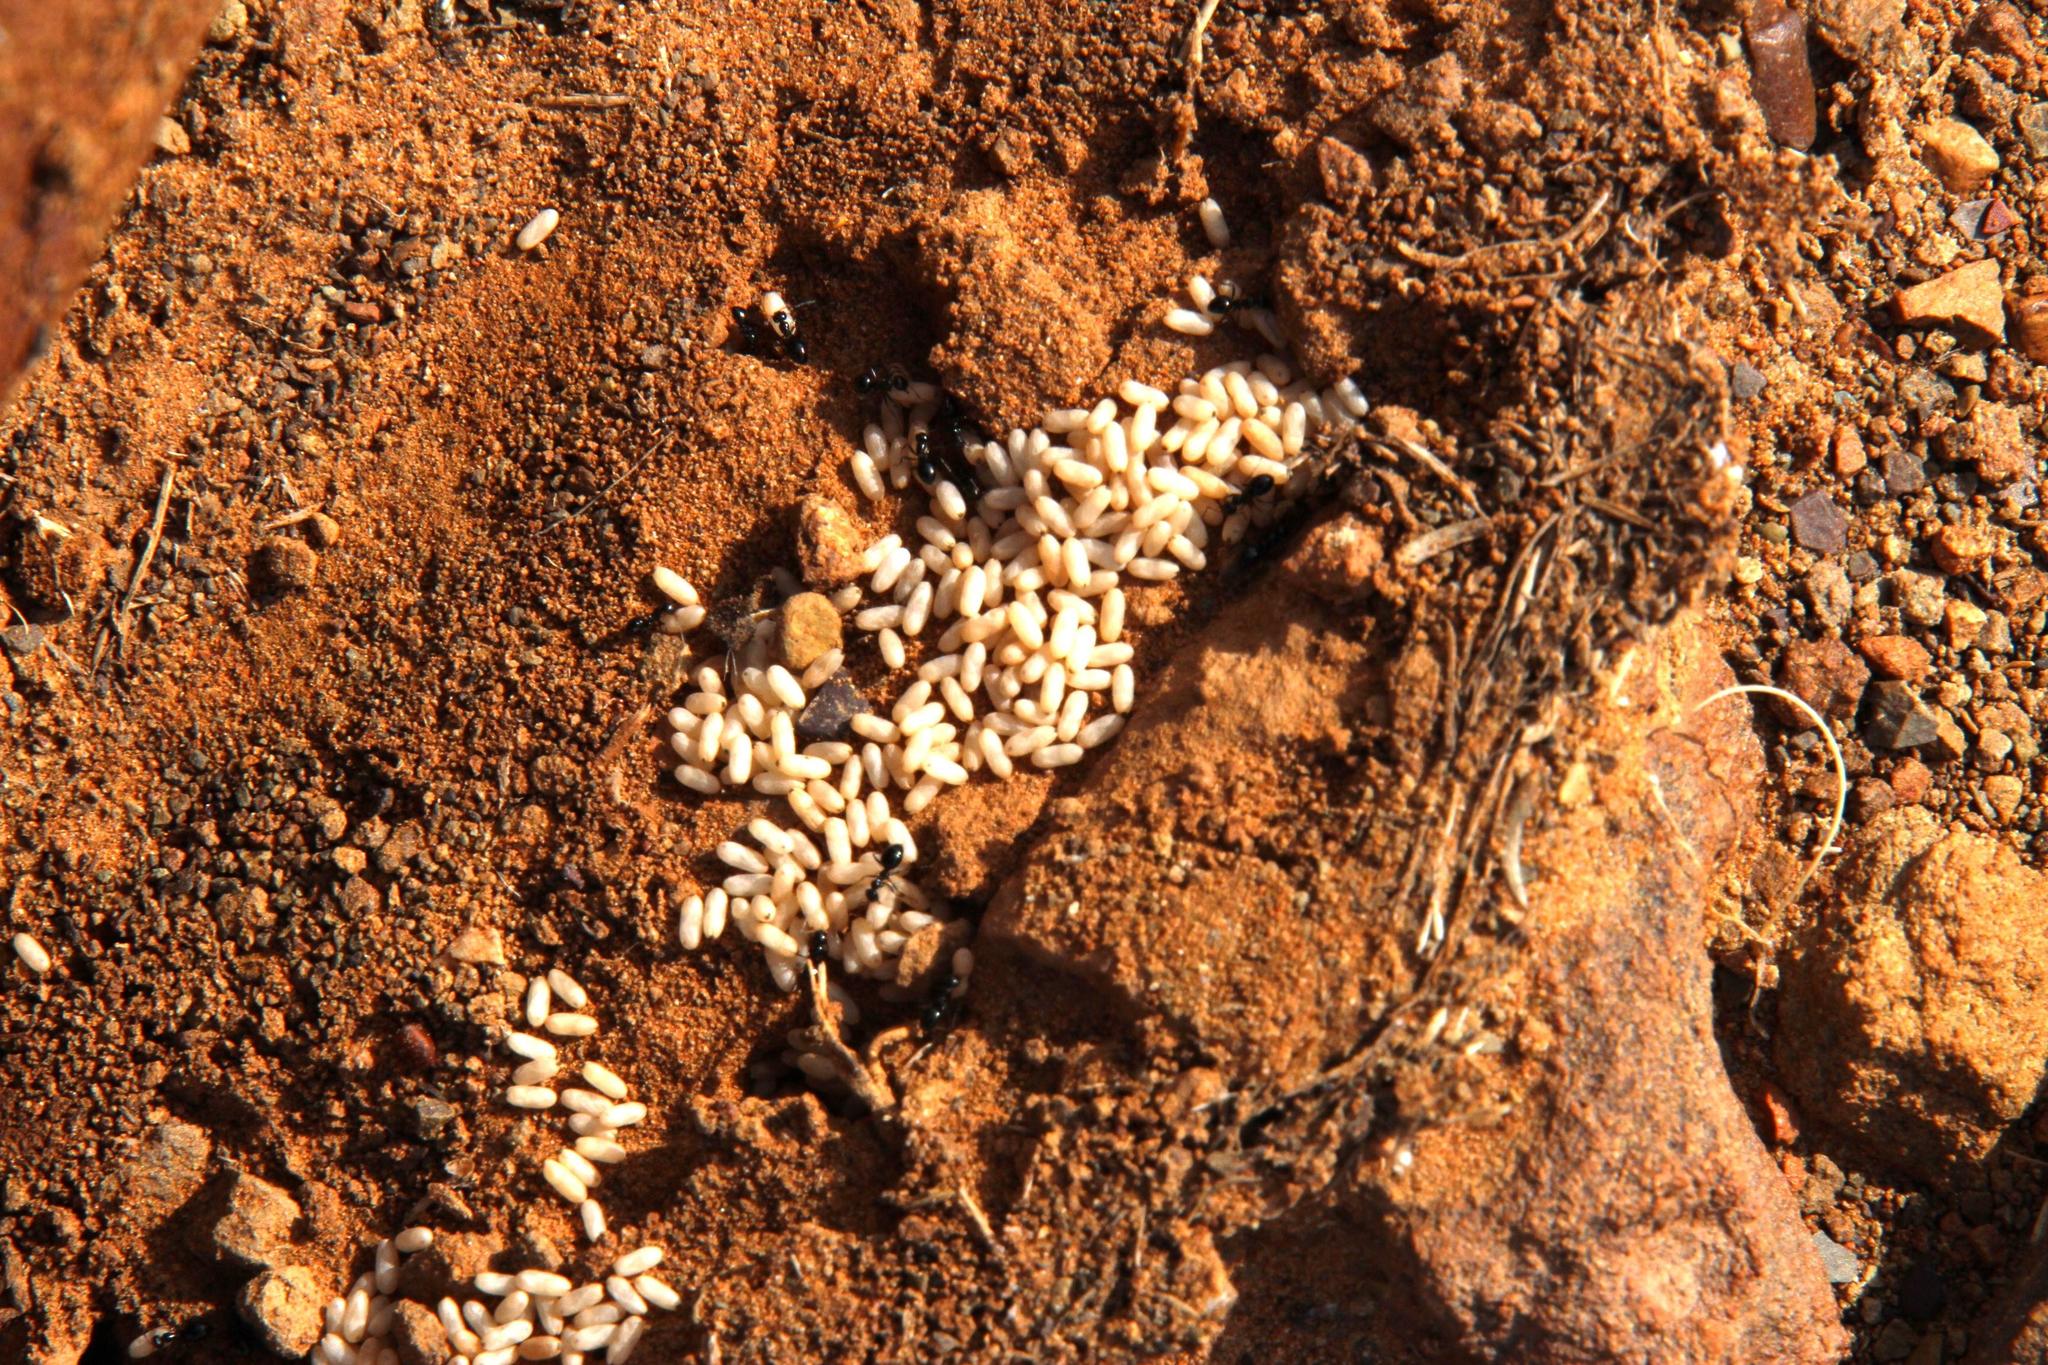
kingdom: Animalia
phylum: Arthropoda
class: Insecta
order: Hymenoptera
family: Formicidae
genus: Lepisiota
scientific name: Lepisiota capensis
